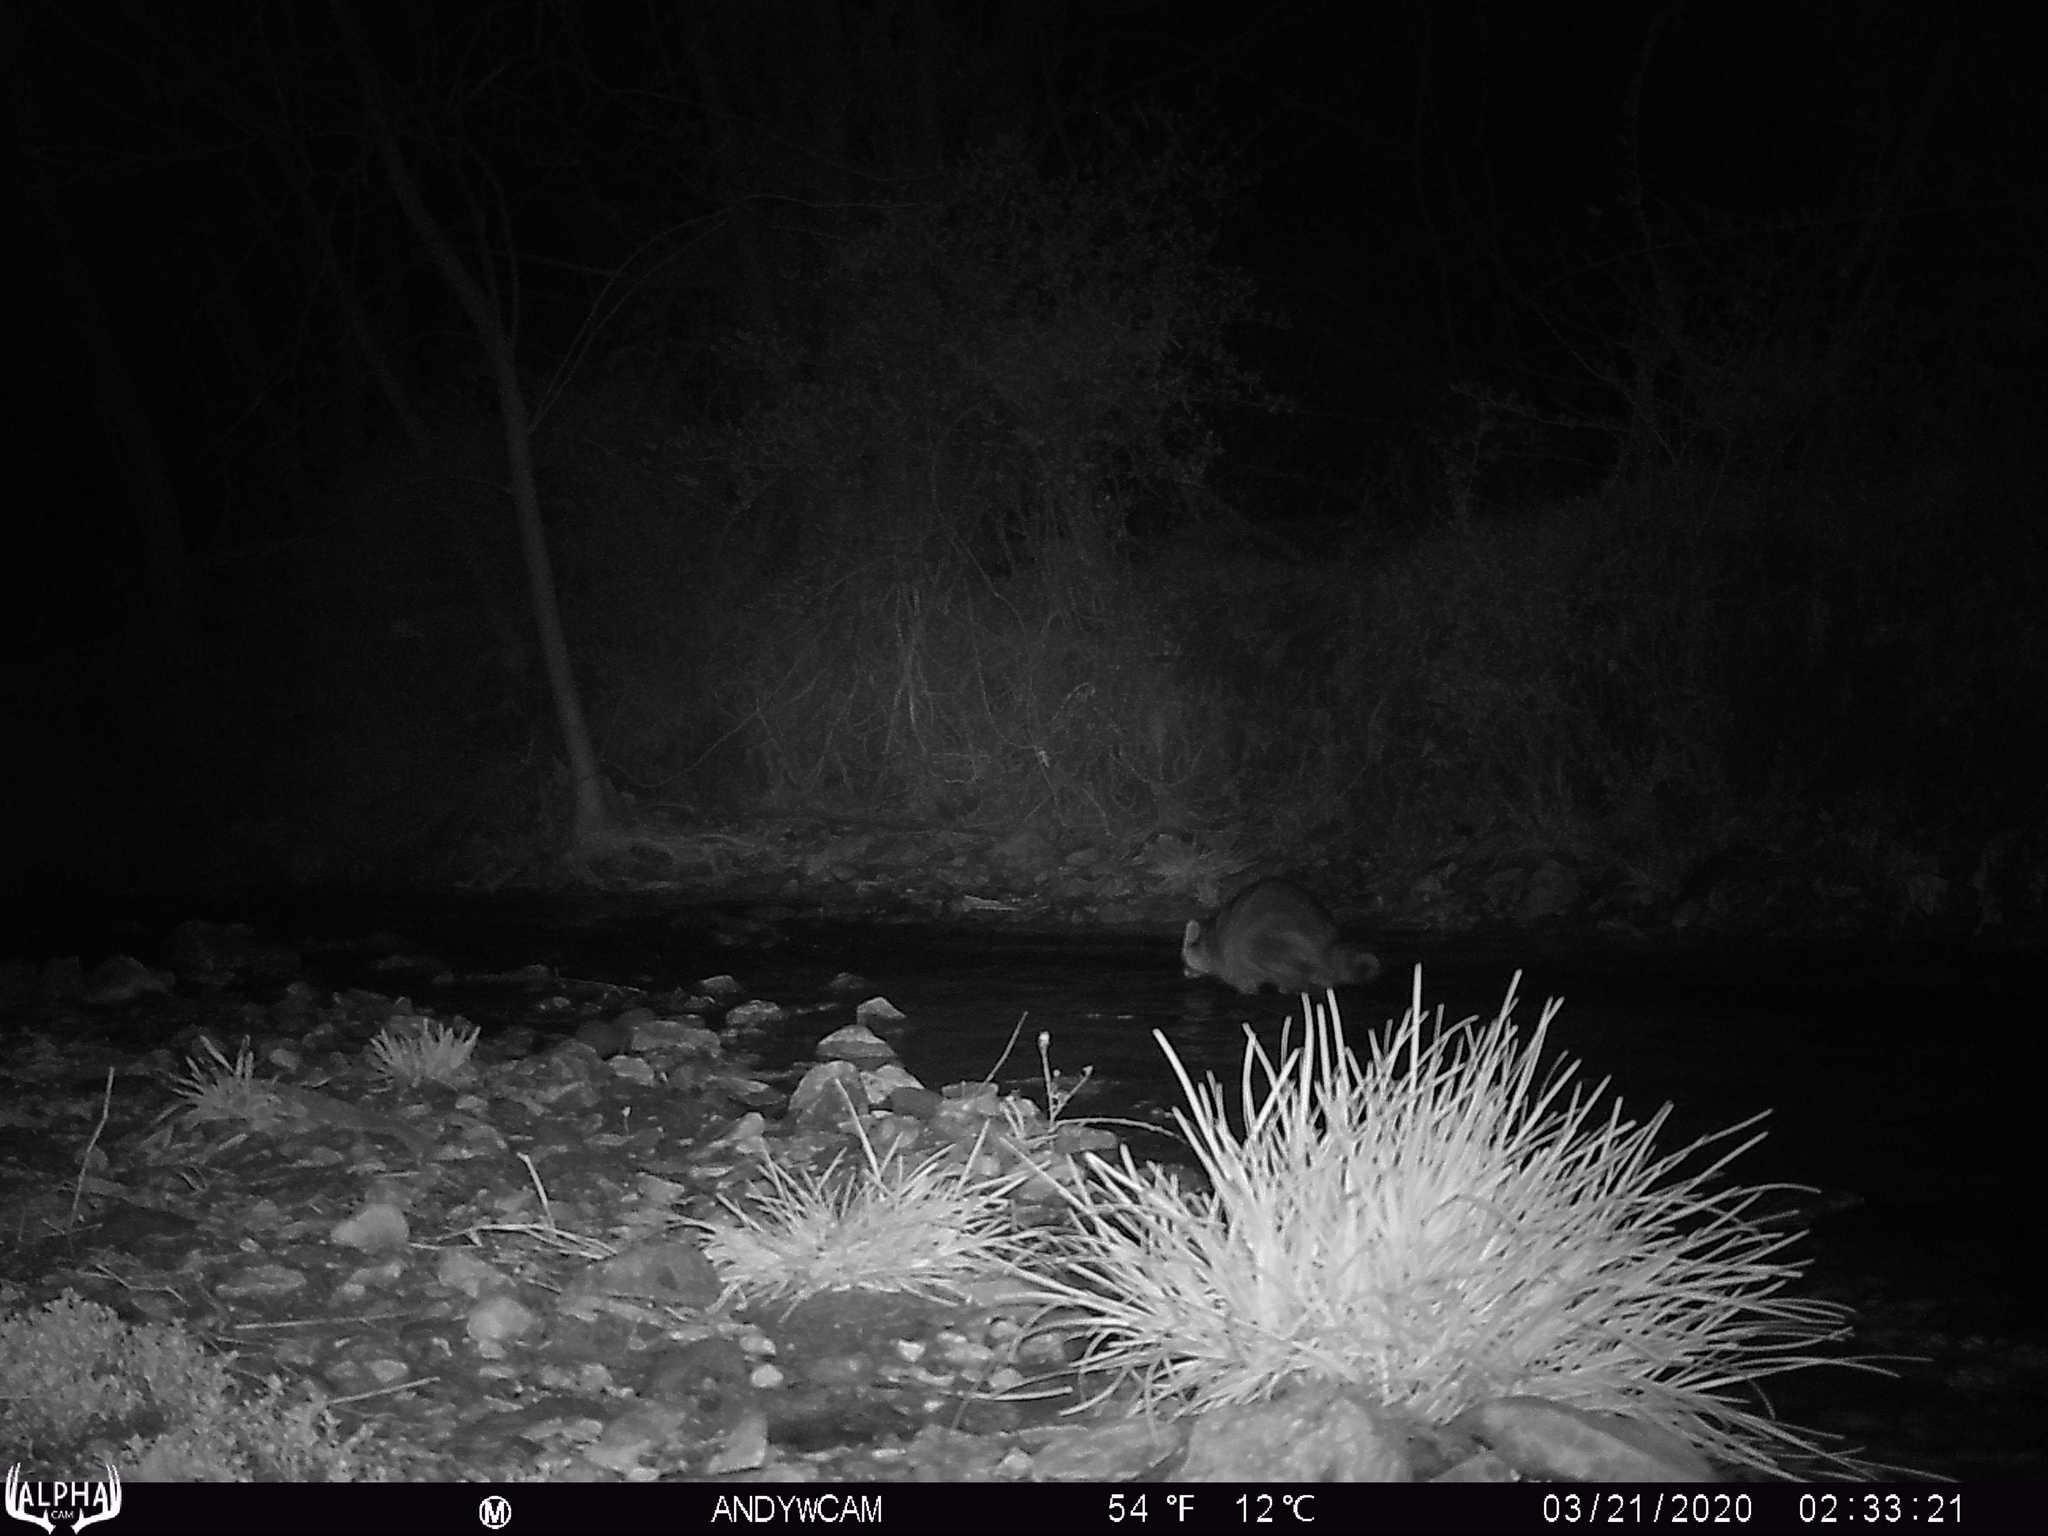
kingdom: Animalia
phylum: Chordata
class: Mammalia
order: Carnivora
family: Procyonidae
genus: Procyon
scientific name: Procyon lotor
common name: Raccoon
